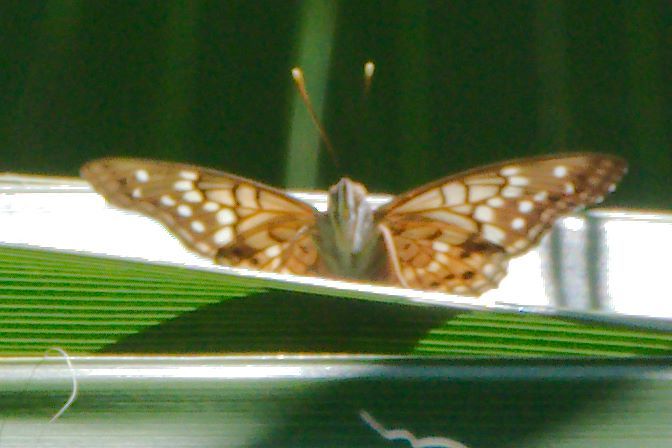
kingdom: Animalia
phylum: Arthropoda
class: Insecta
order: Lepidoptera
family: Nymphalidae
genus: Asterocampa
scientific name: Asterocampa clyton
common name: Tawny emperor
